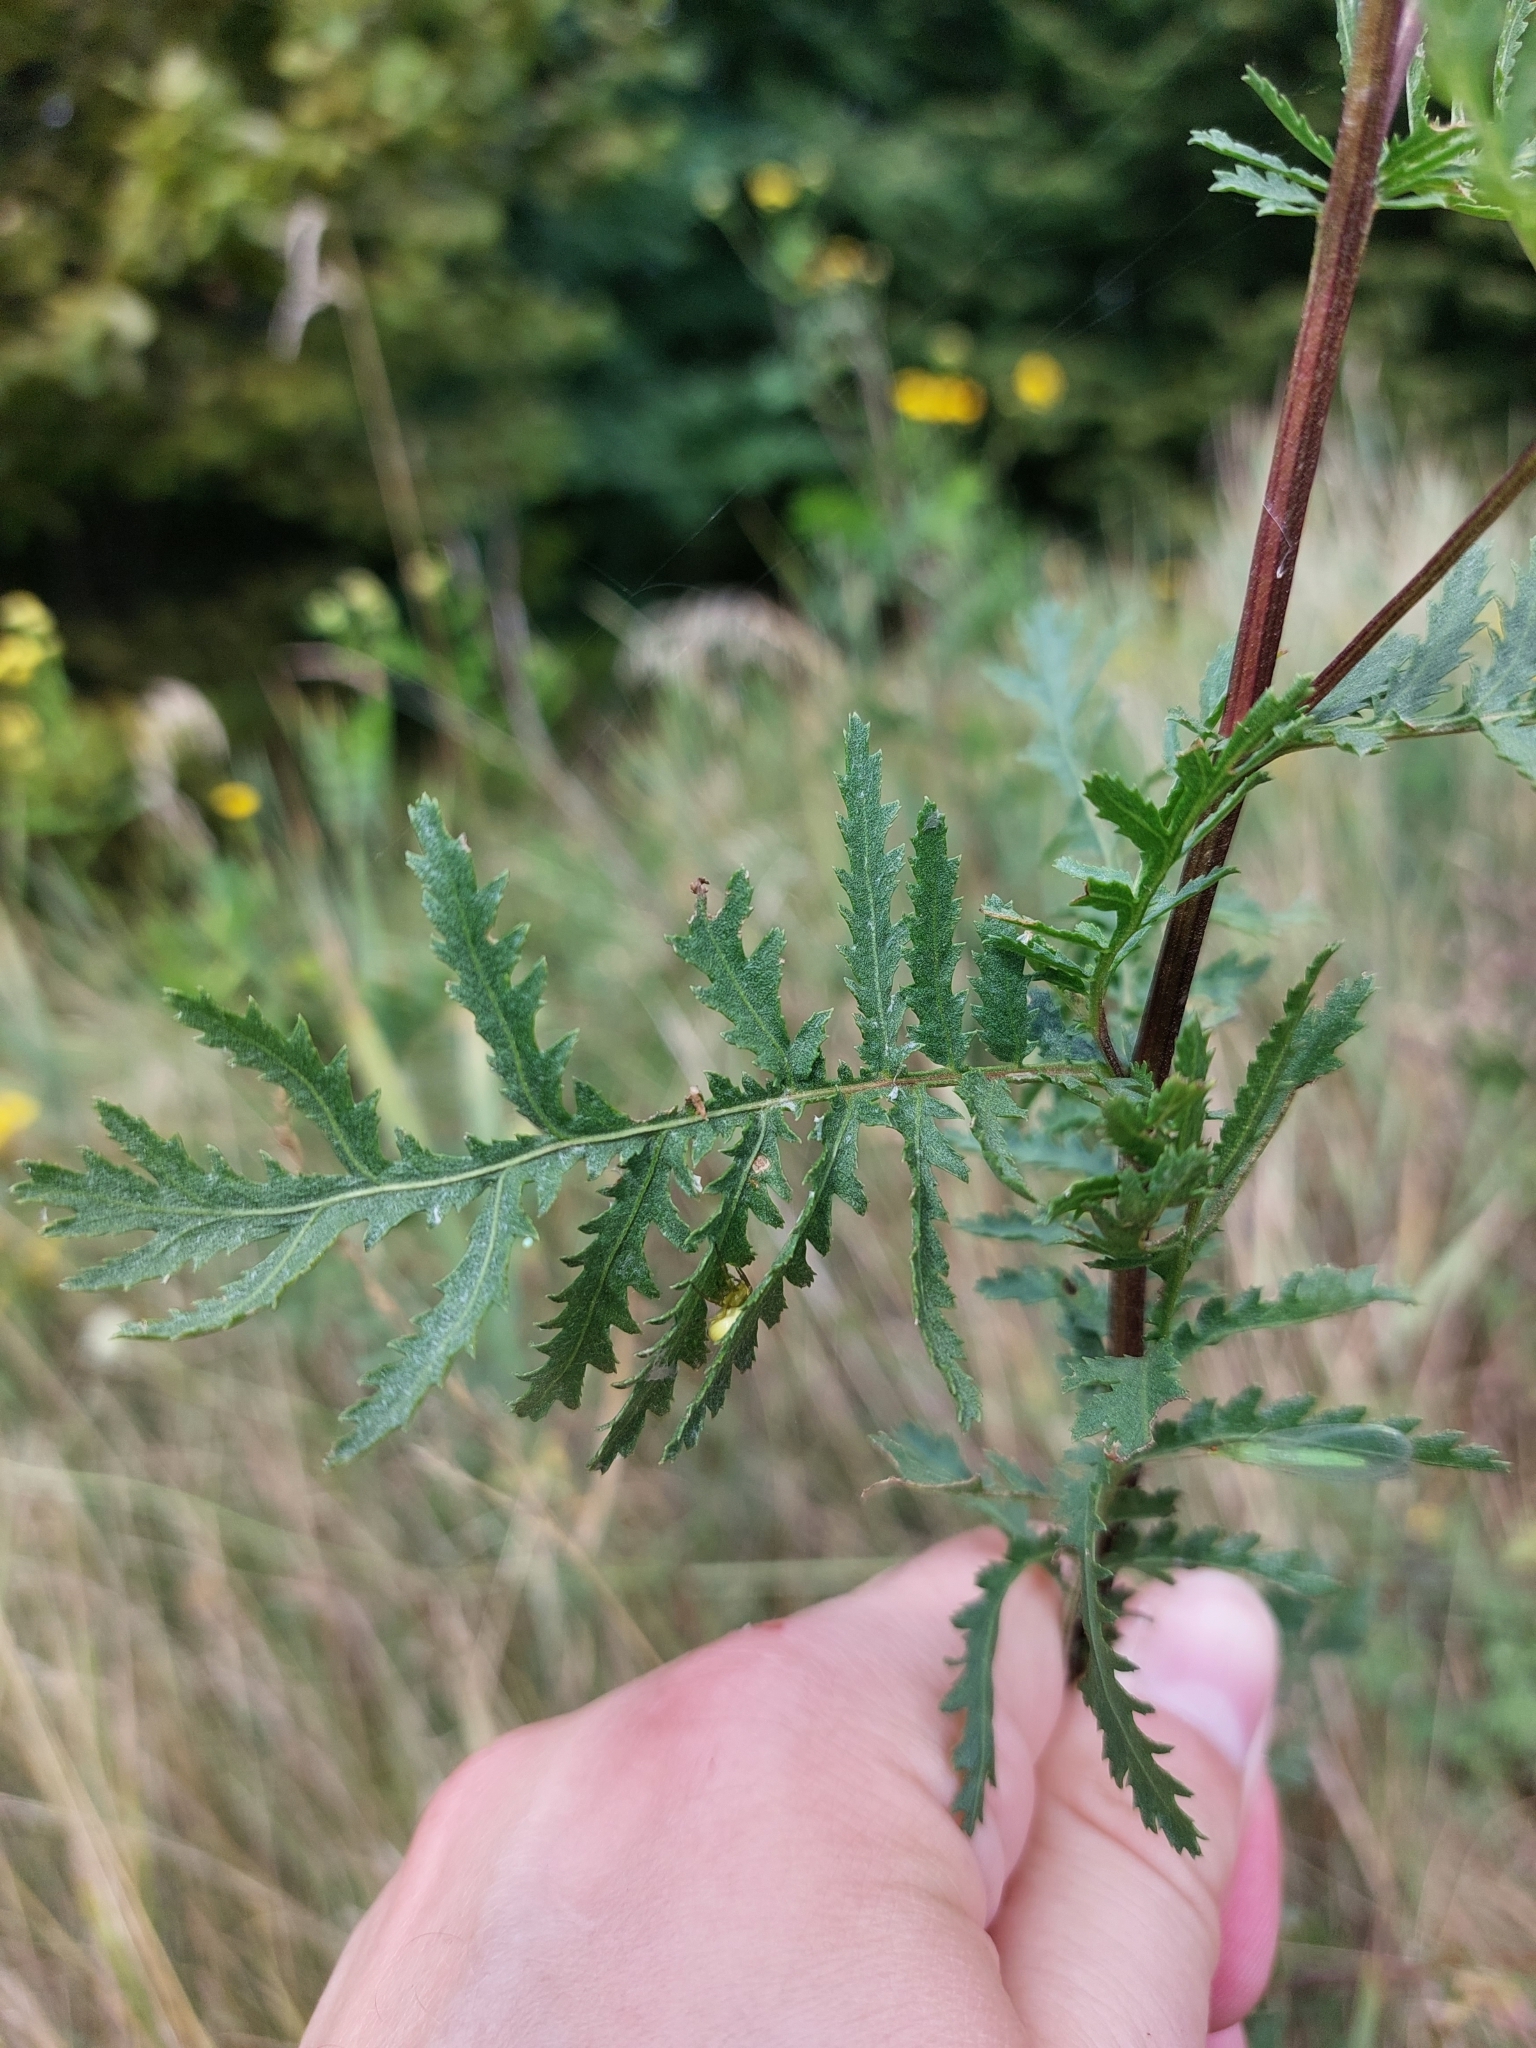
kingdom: Plantae
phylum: Tracheophyta
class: Magnoliopsida
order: Asterales
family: Asteraceae
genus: Tanacetum
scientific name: Tanacetum vulgare
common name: Common tansy
